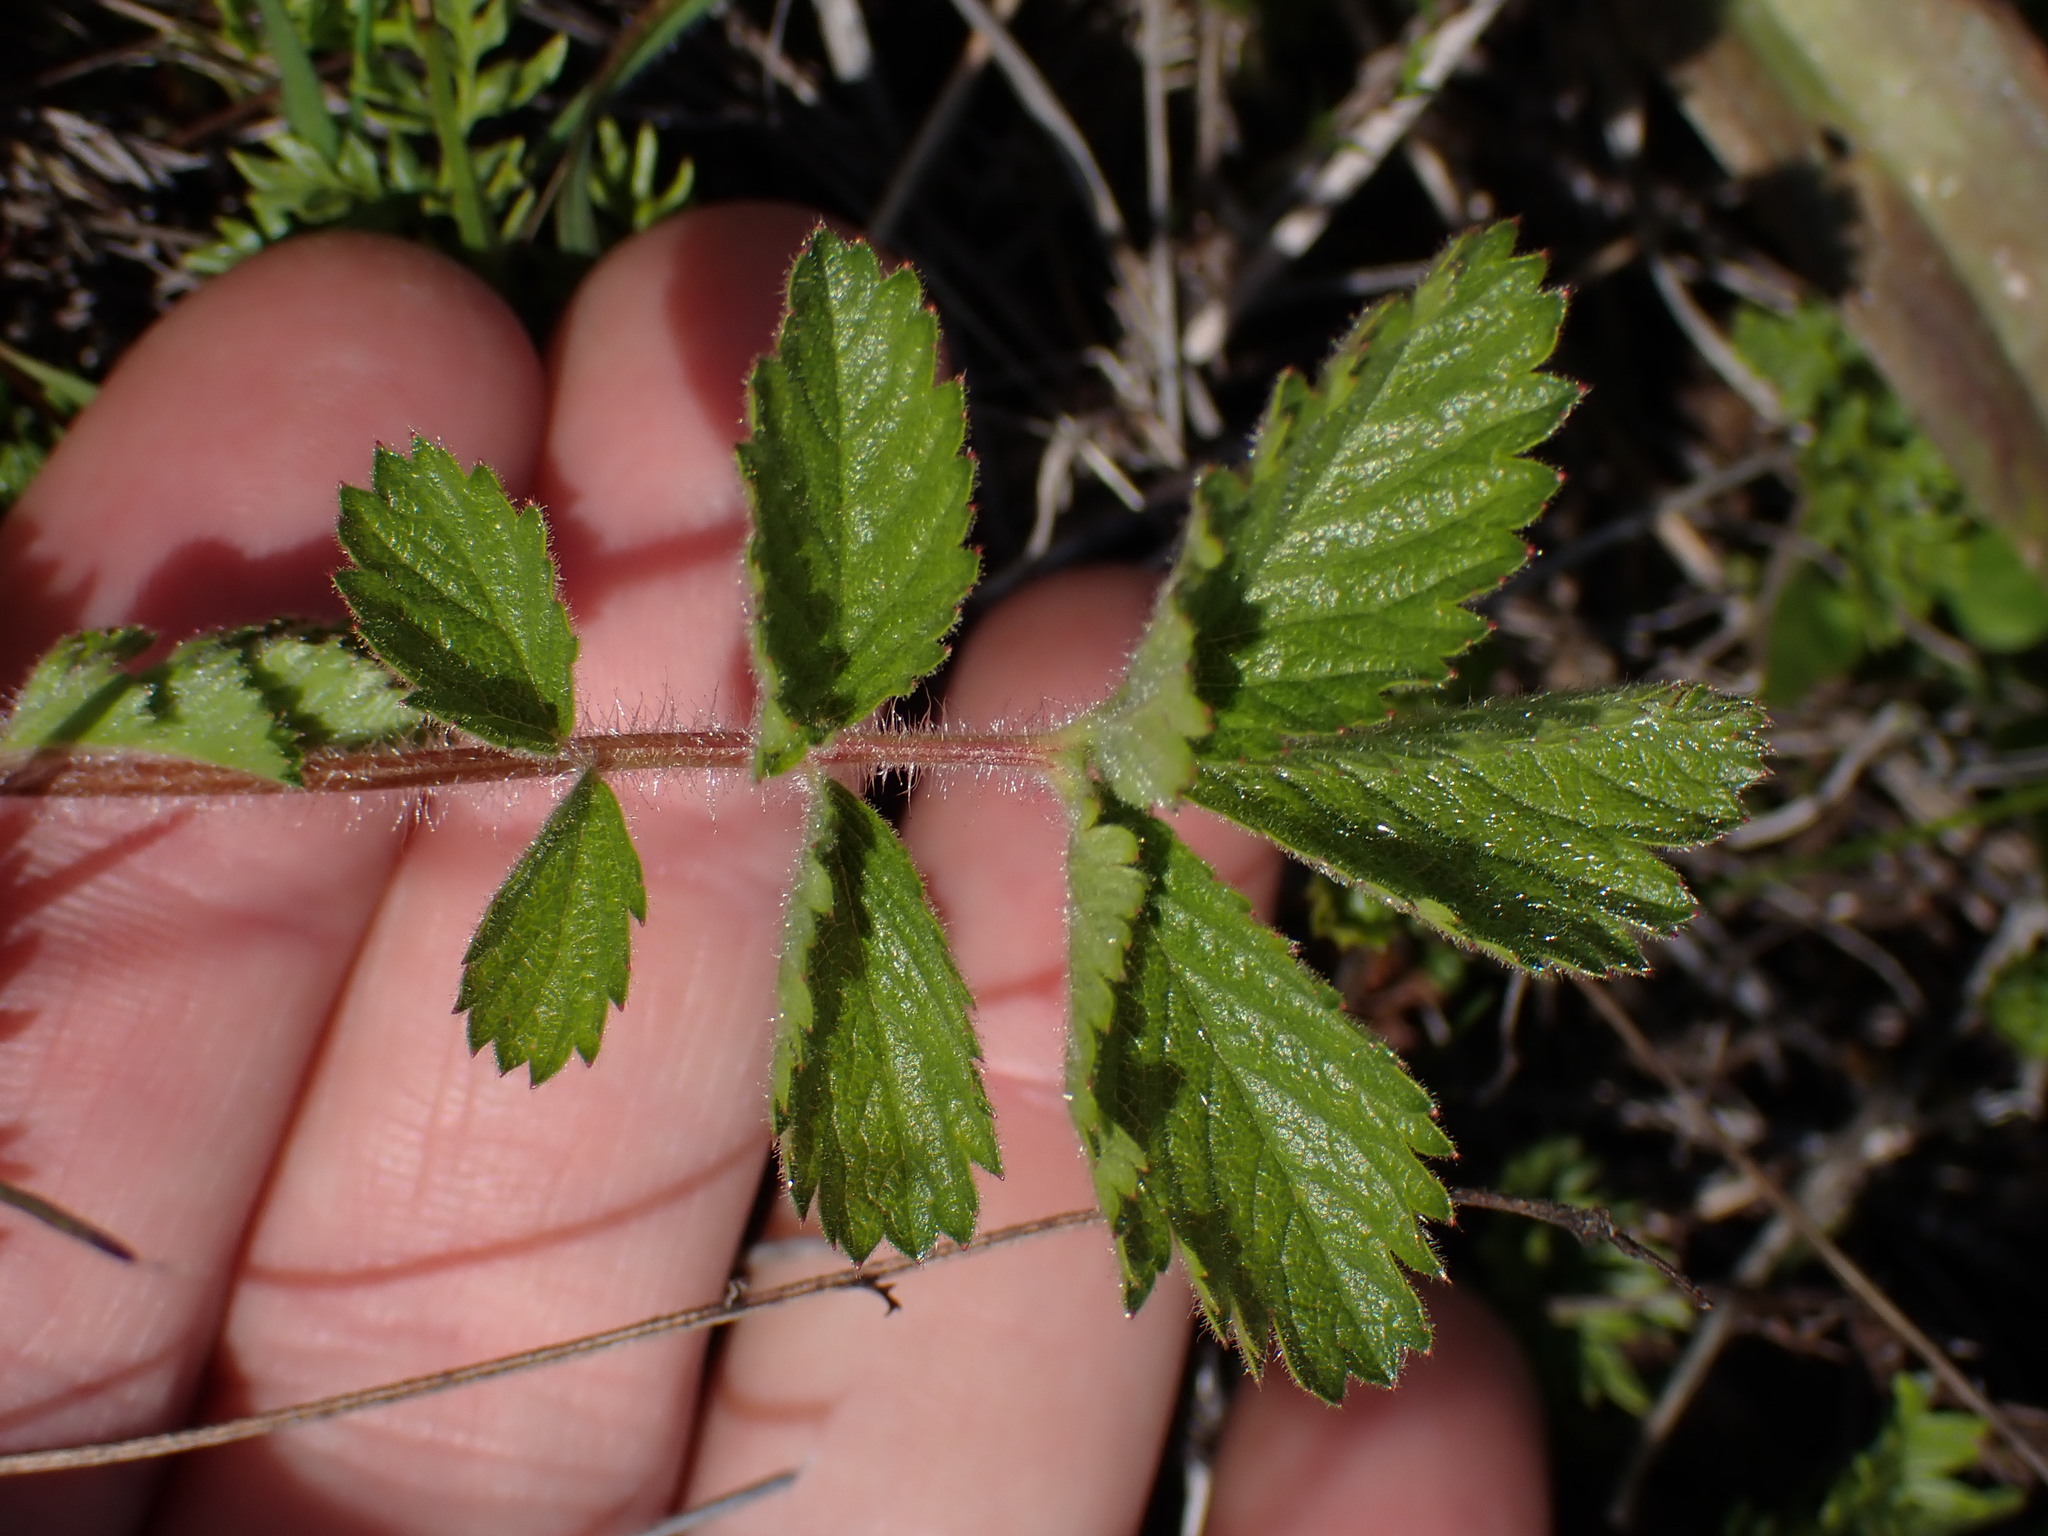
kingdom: Plantae
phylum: Tracheophyta
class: Magnoliopsida
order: Rosales
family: Rosaceae
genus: Drymocallis
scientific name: Drymocallis glandulosa
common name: Sticky cinquefoil
